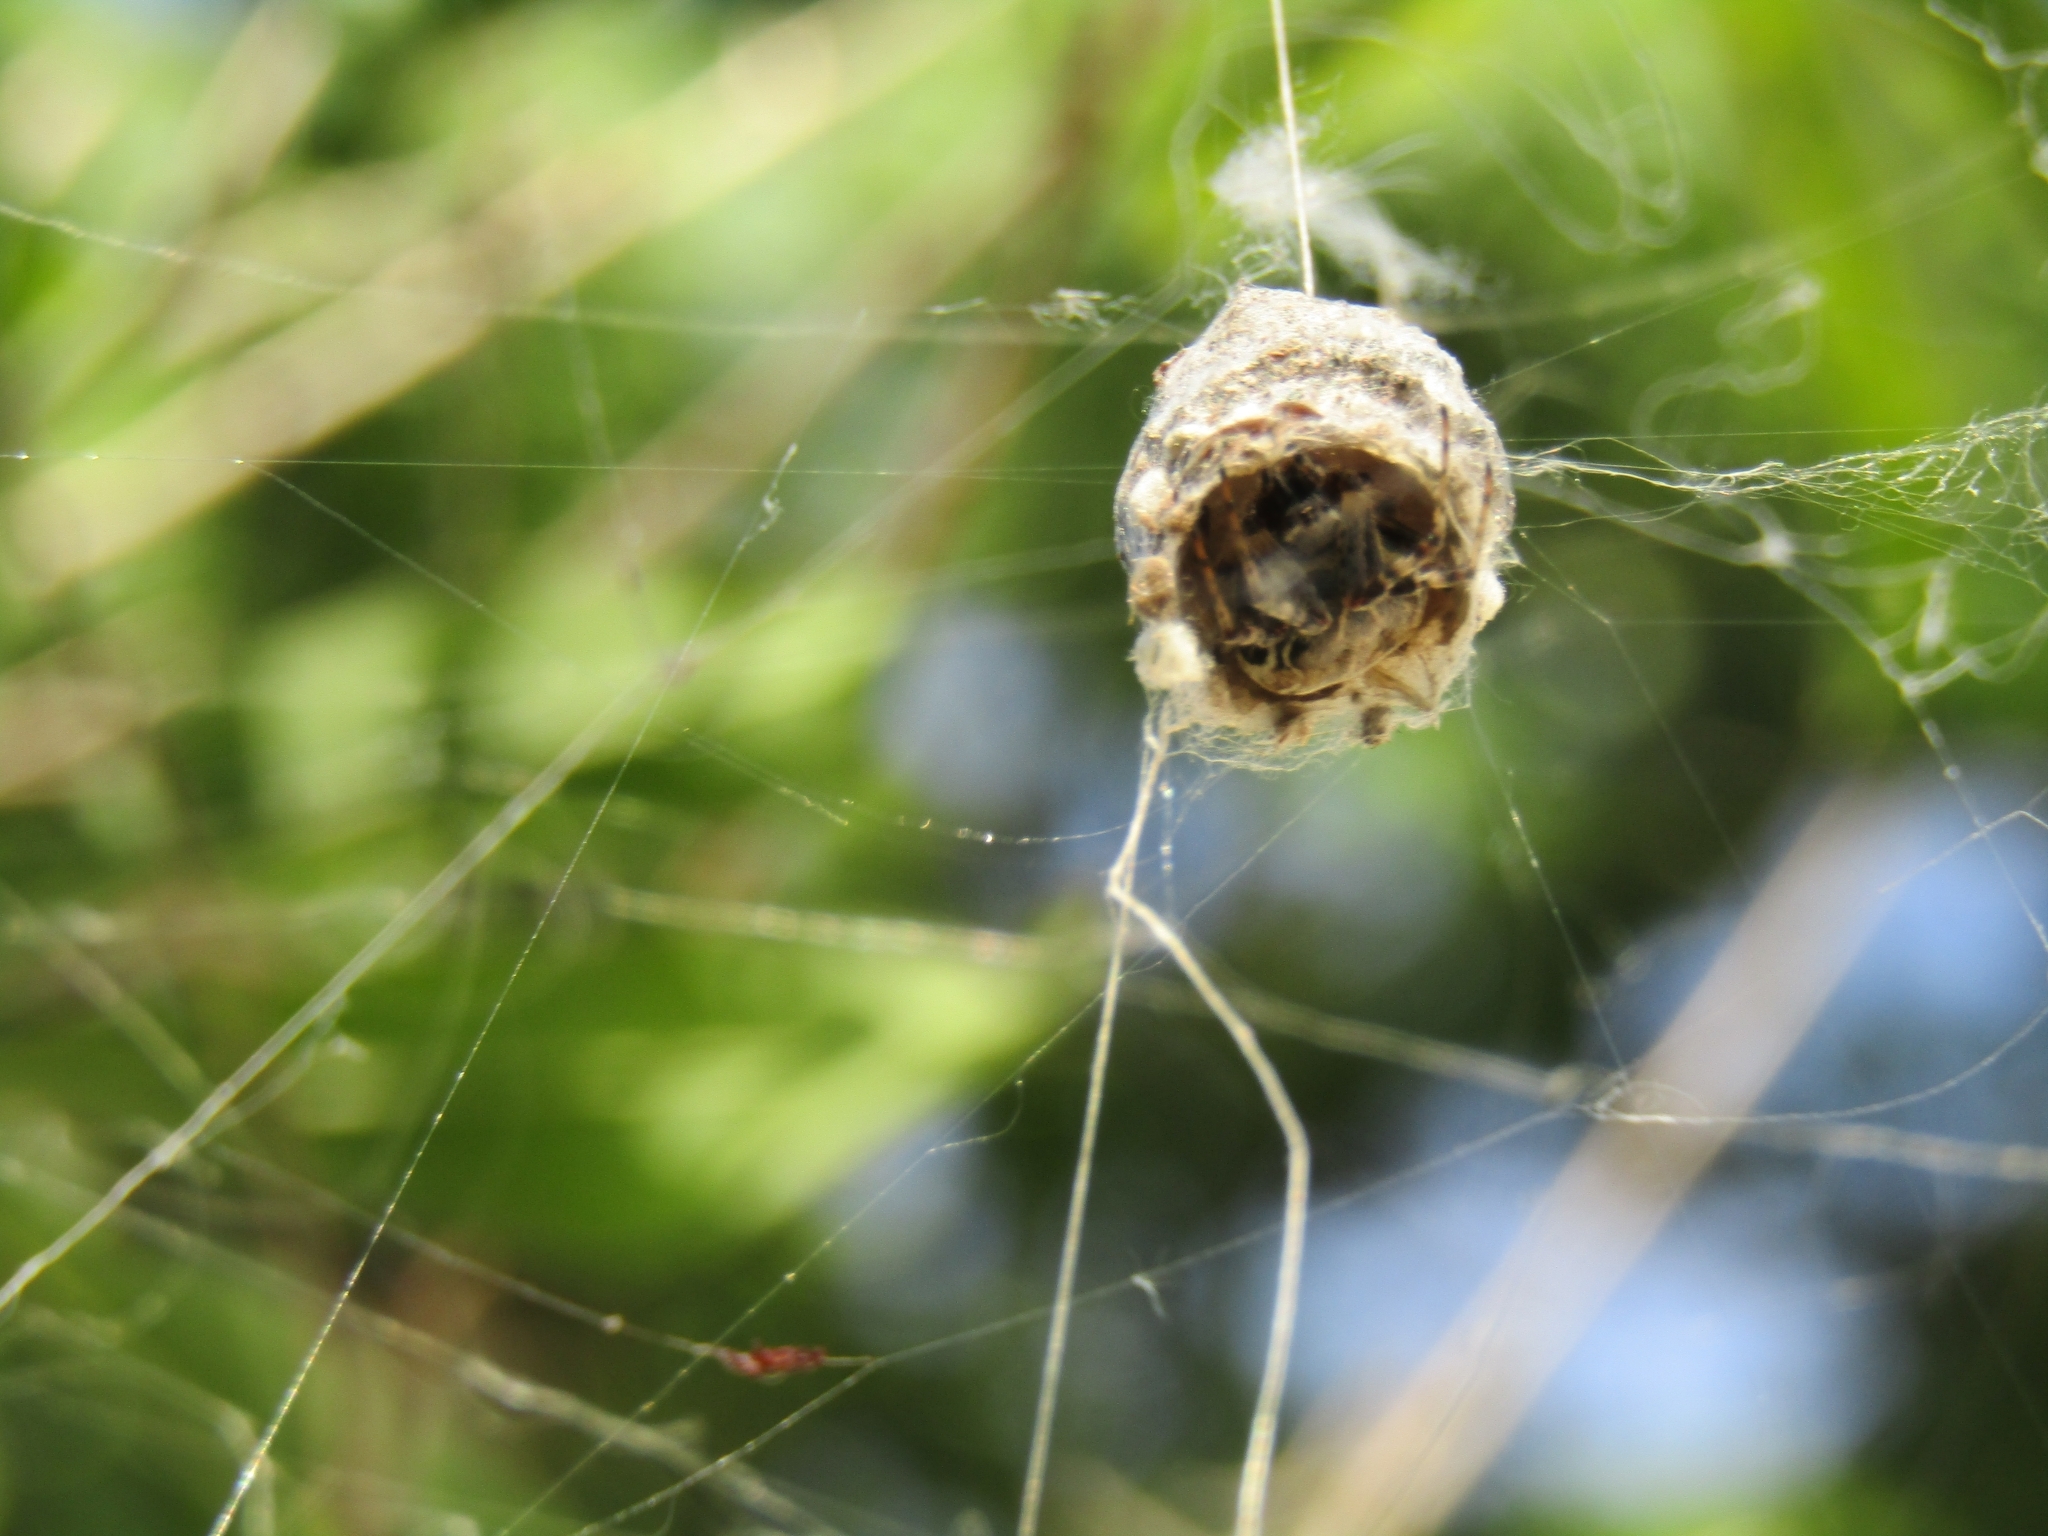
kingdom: Animalia
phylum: Arthropoda
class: Arachnida
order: Araneae
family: Araneidae
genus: Metepeira
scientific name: Metepeira
